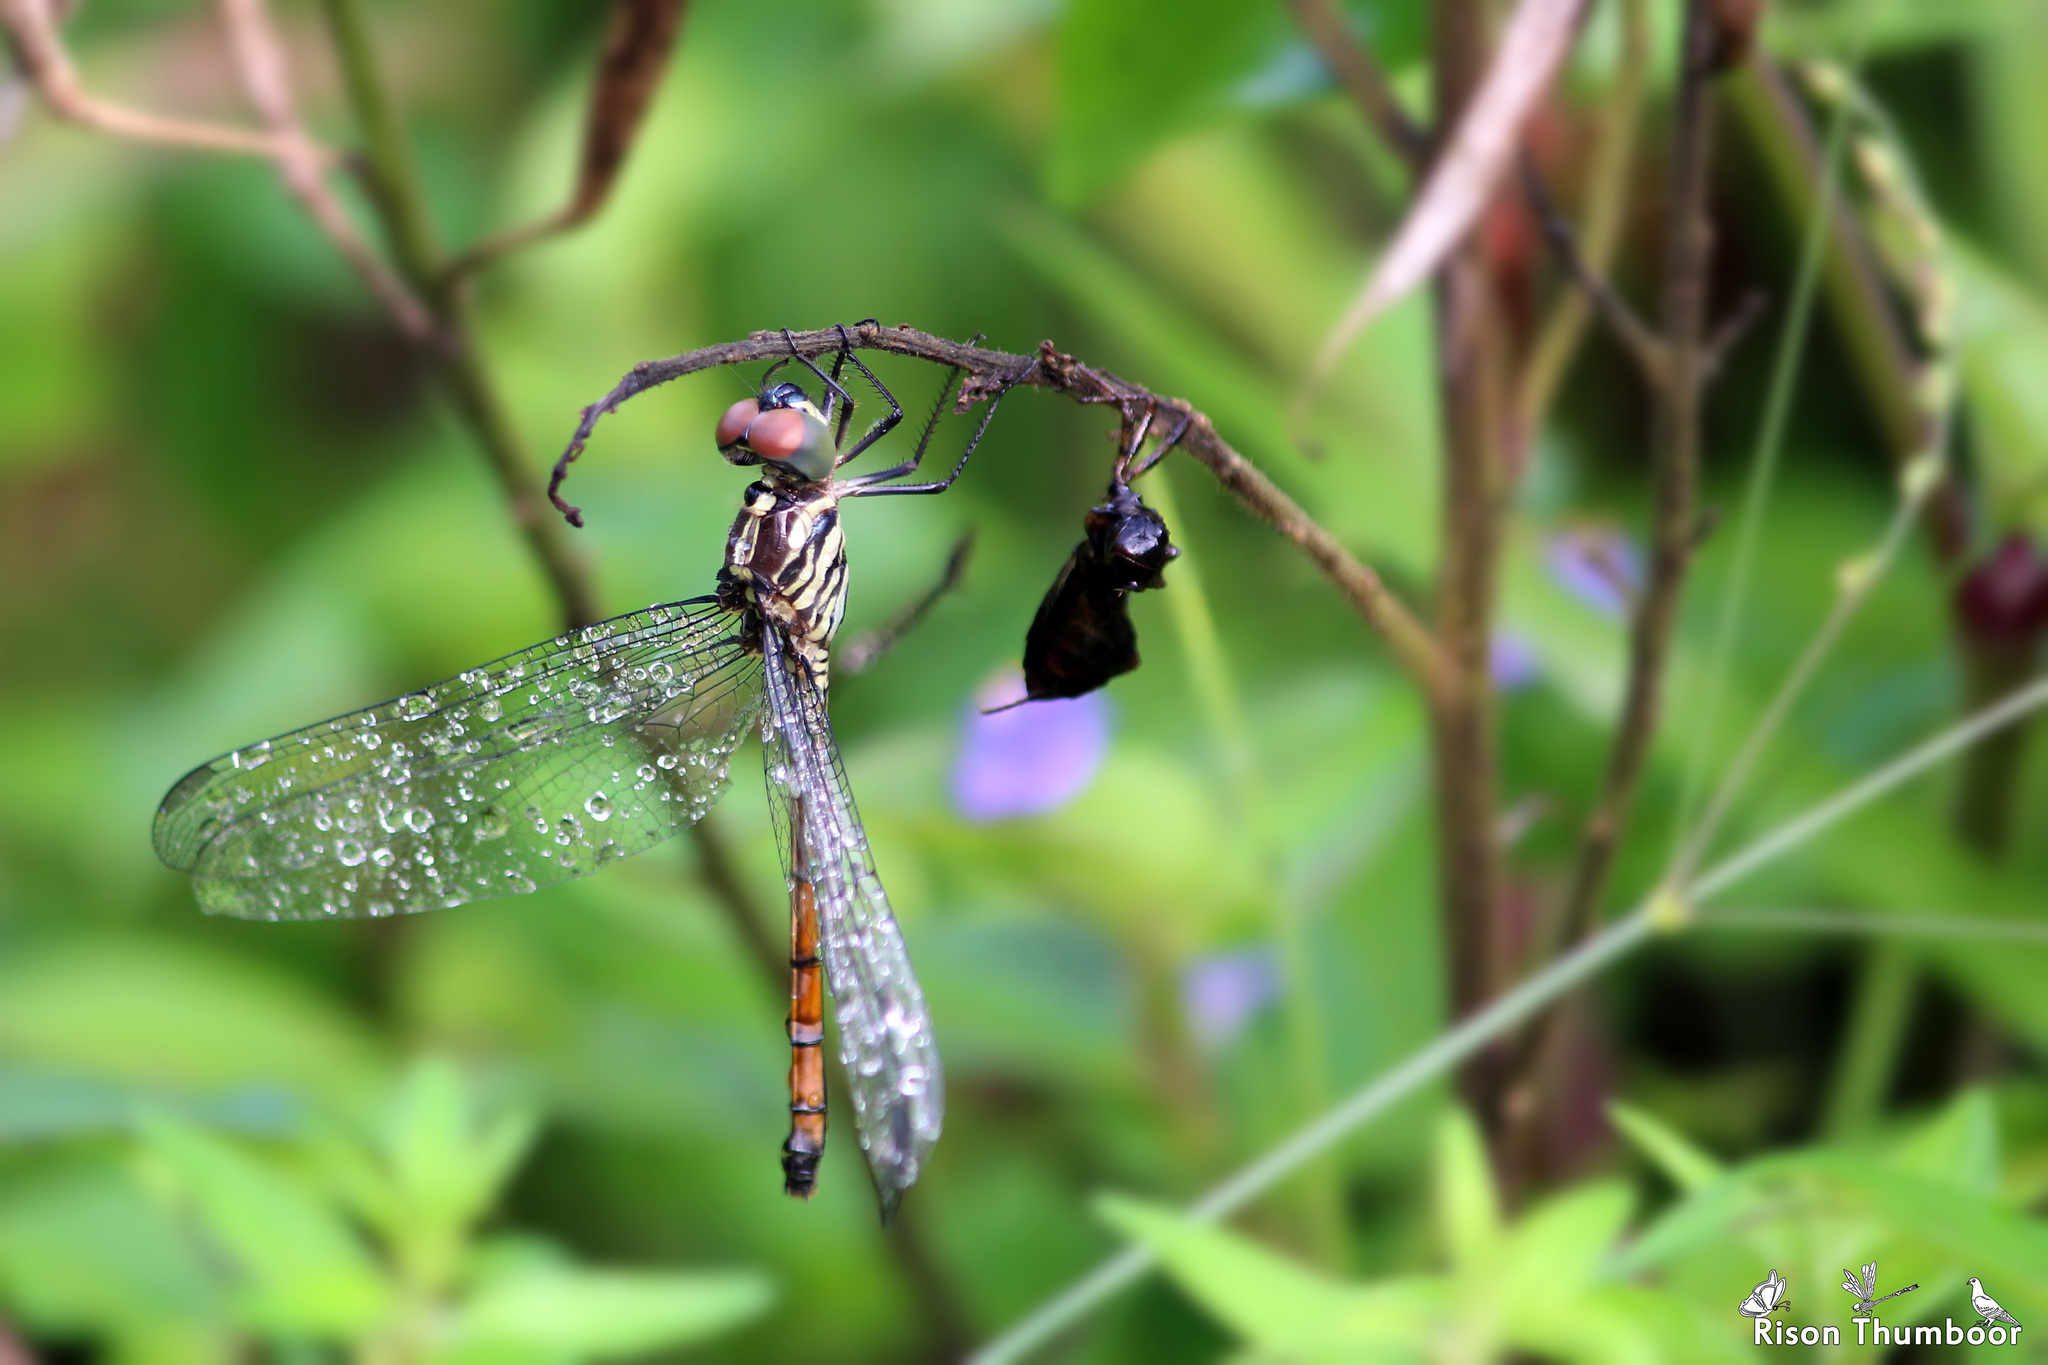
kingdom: Animalia
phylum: Arthropoda
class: Insecta
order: Odonata
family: Libellulidae
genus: Lathrecista
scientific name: Lathrecista asiatica
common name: Scarlet grenadier
